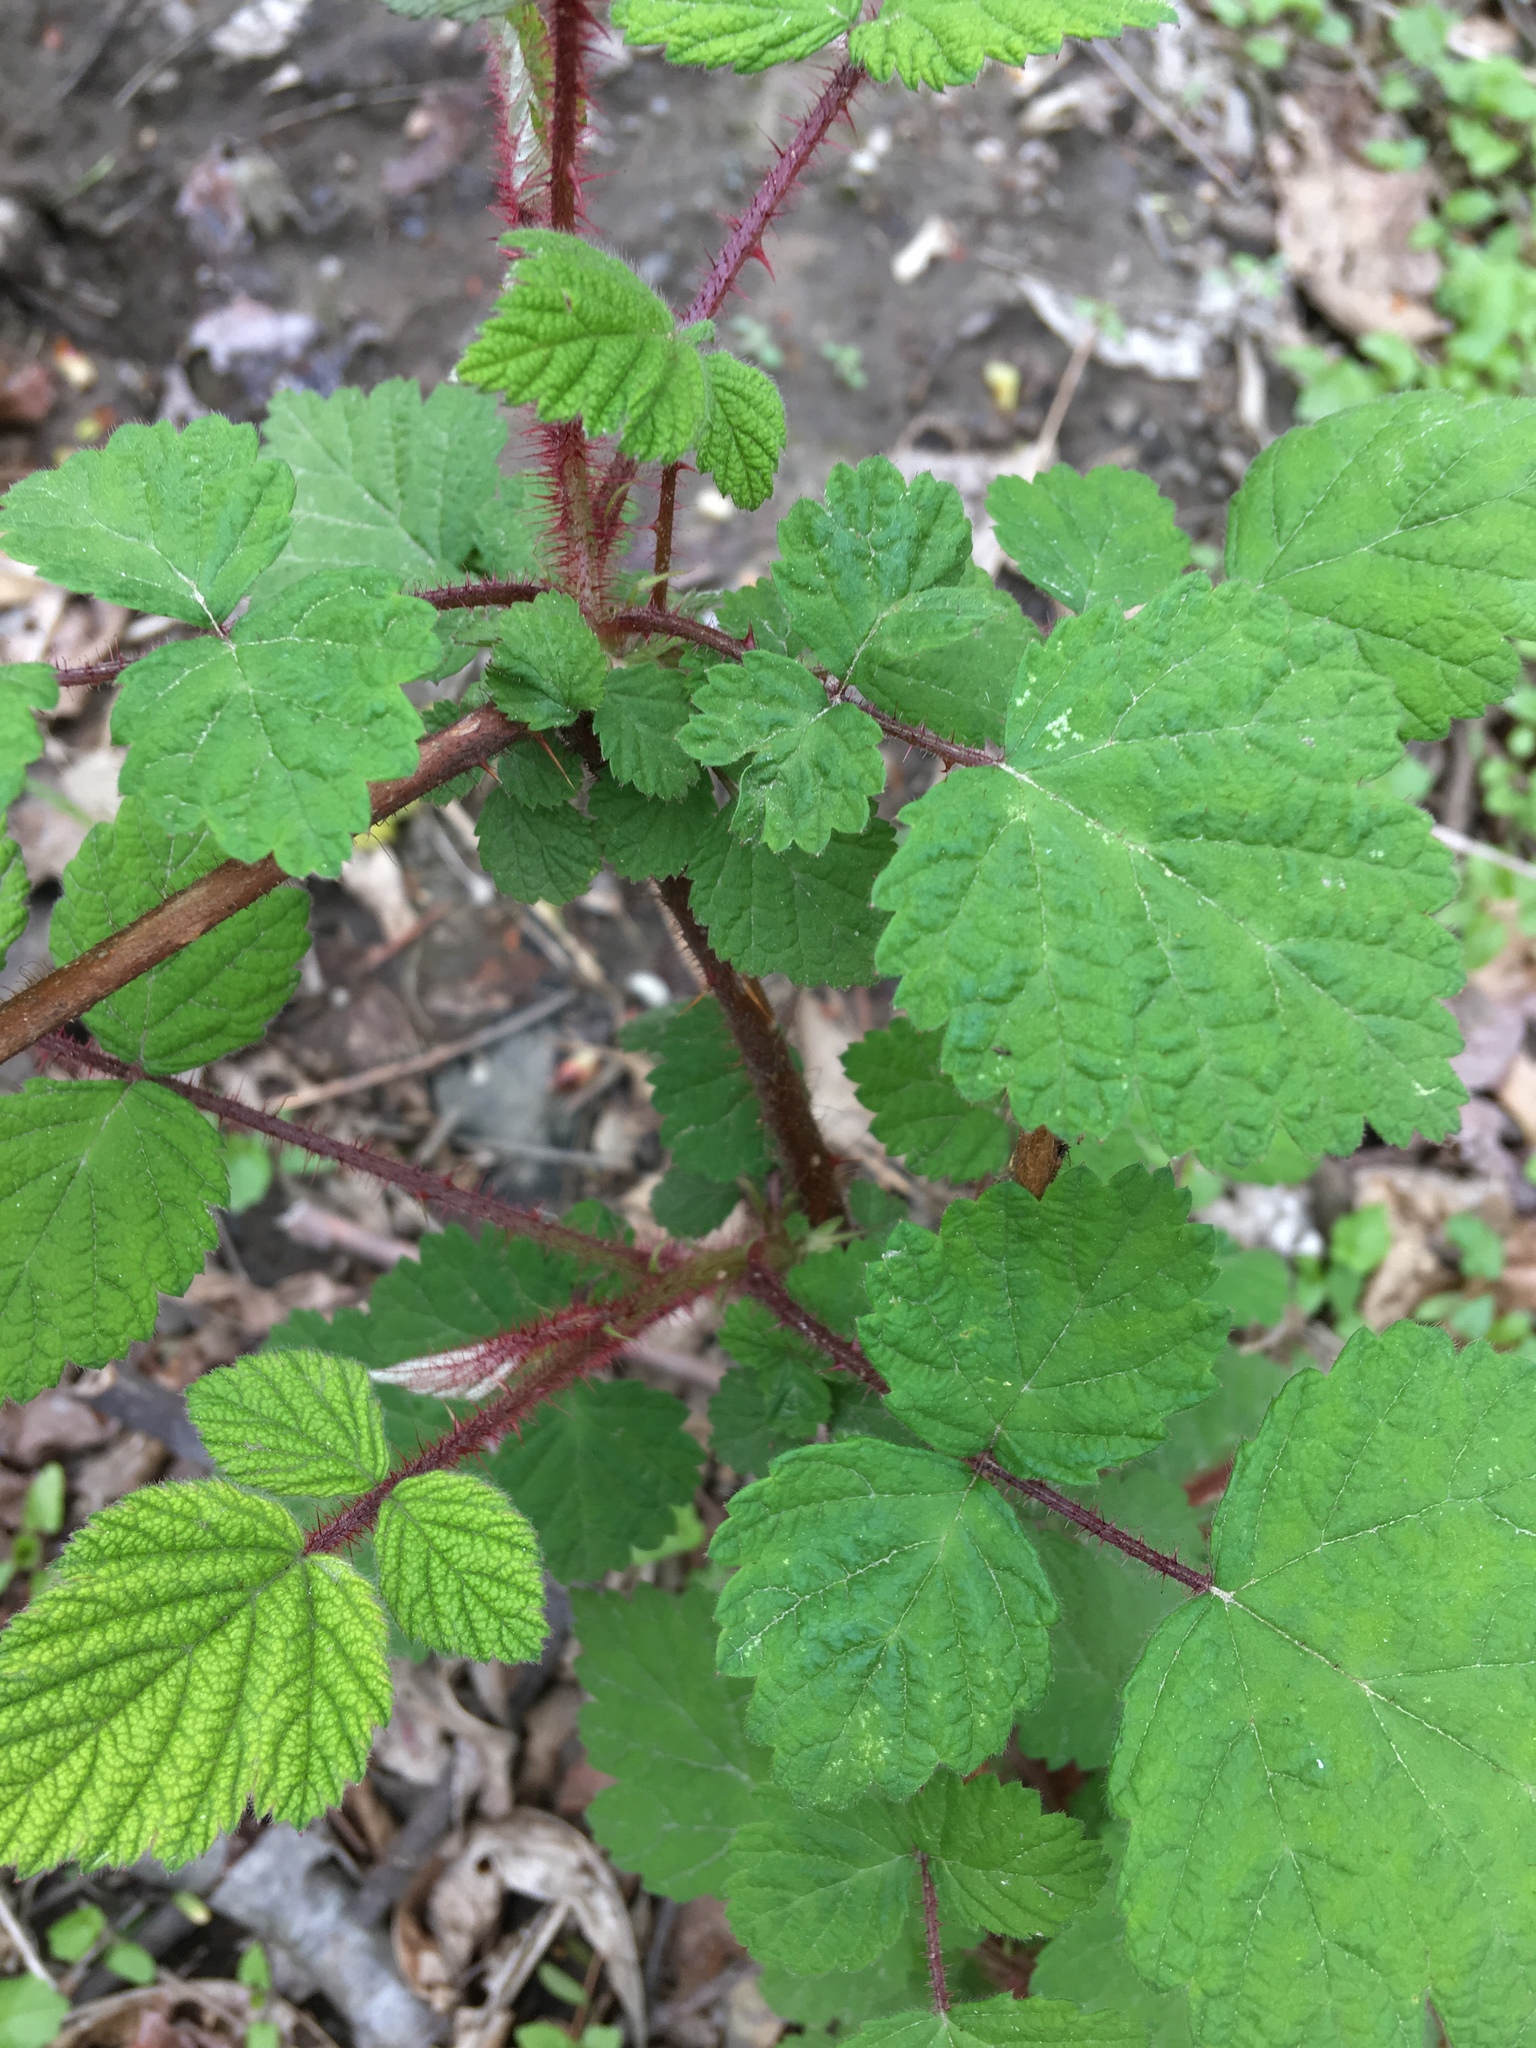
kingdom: Plantae
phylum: Tracheophyta
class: Magnoliopsida
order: Rosales
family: Rosaceae
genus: Rubus
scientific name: Rubus phoenicolasius
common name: Japanese wineberry
